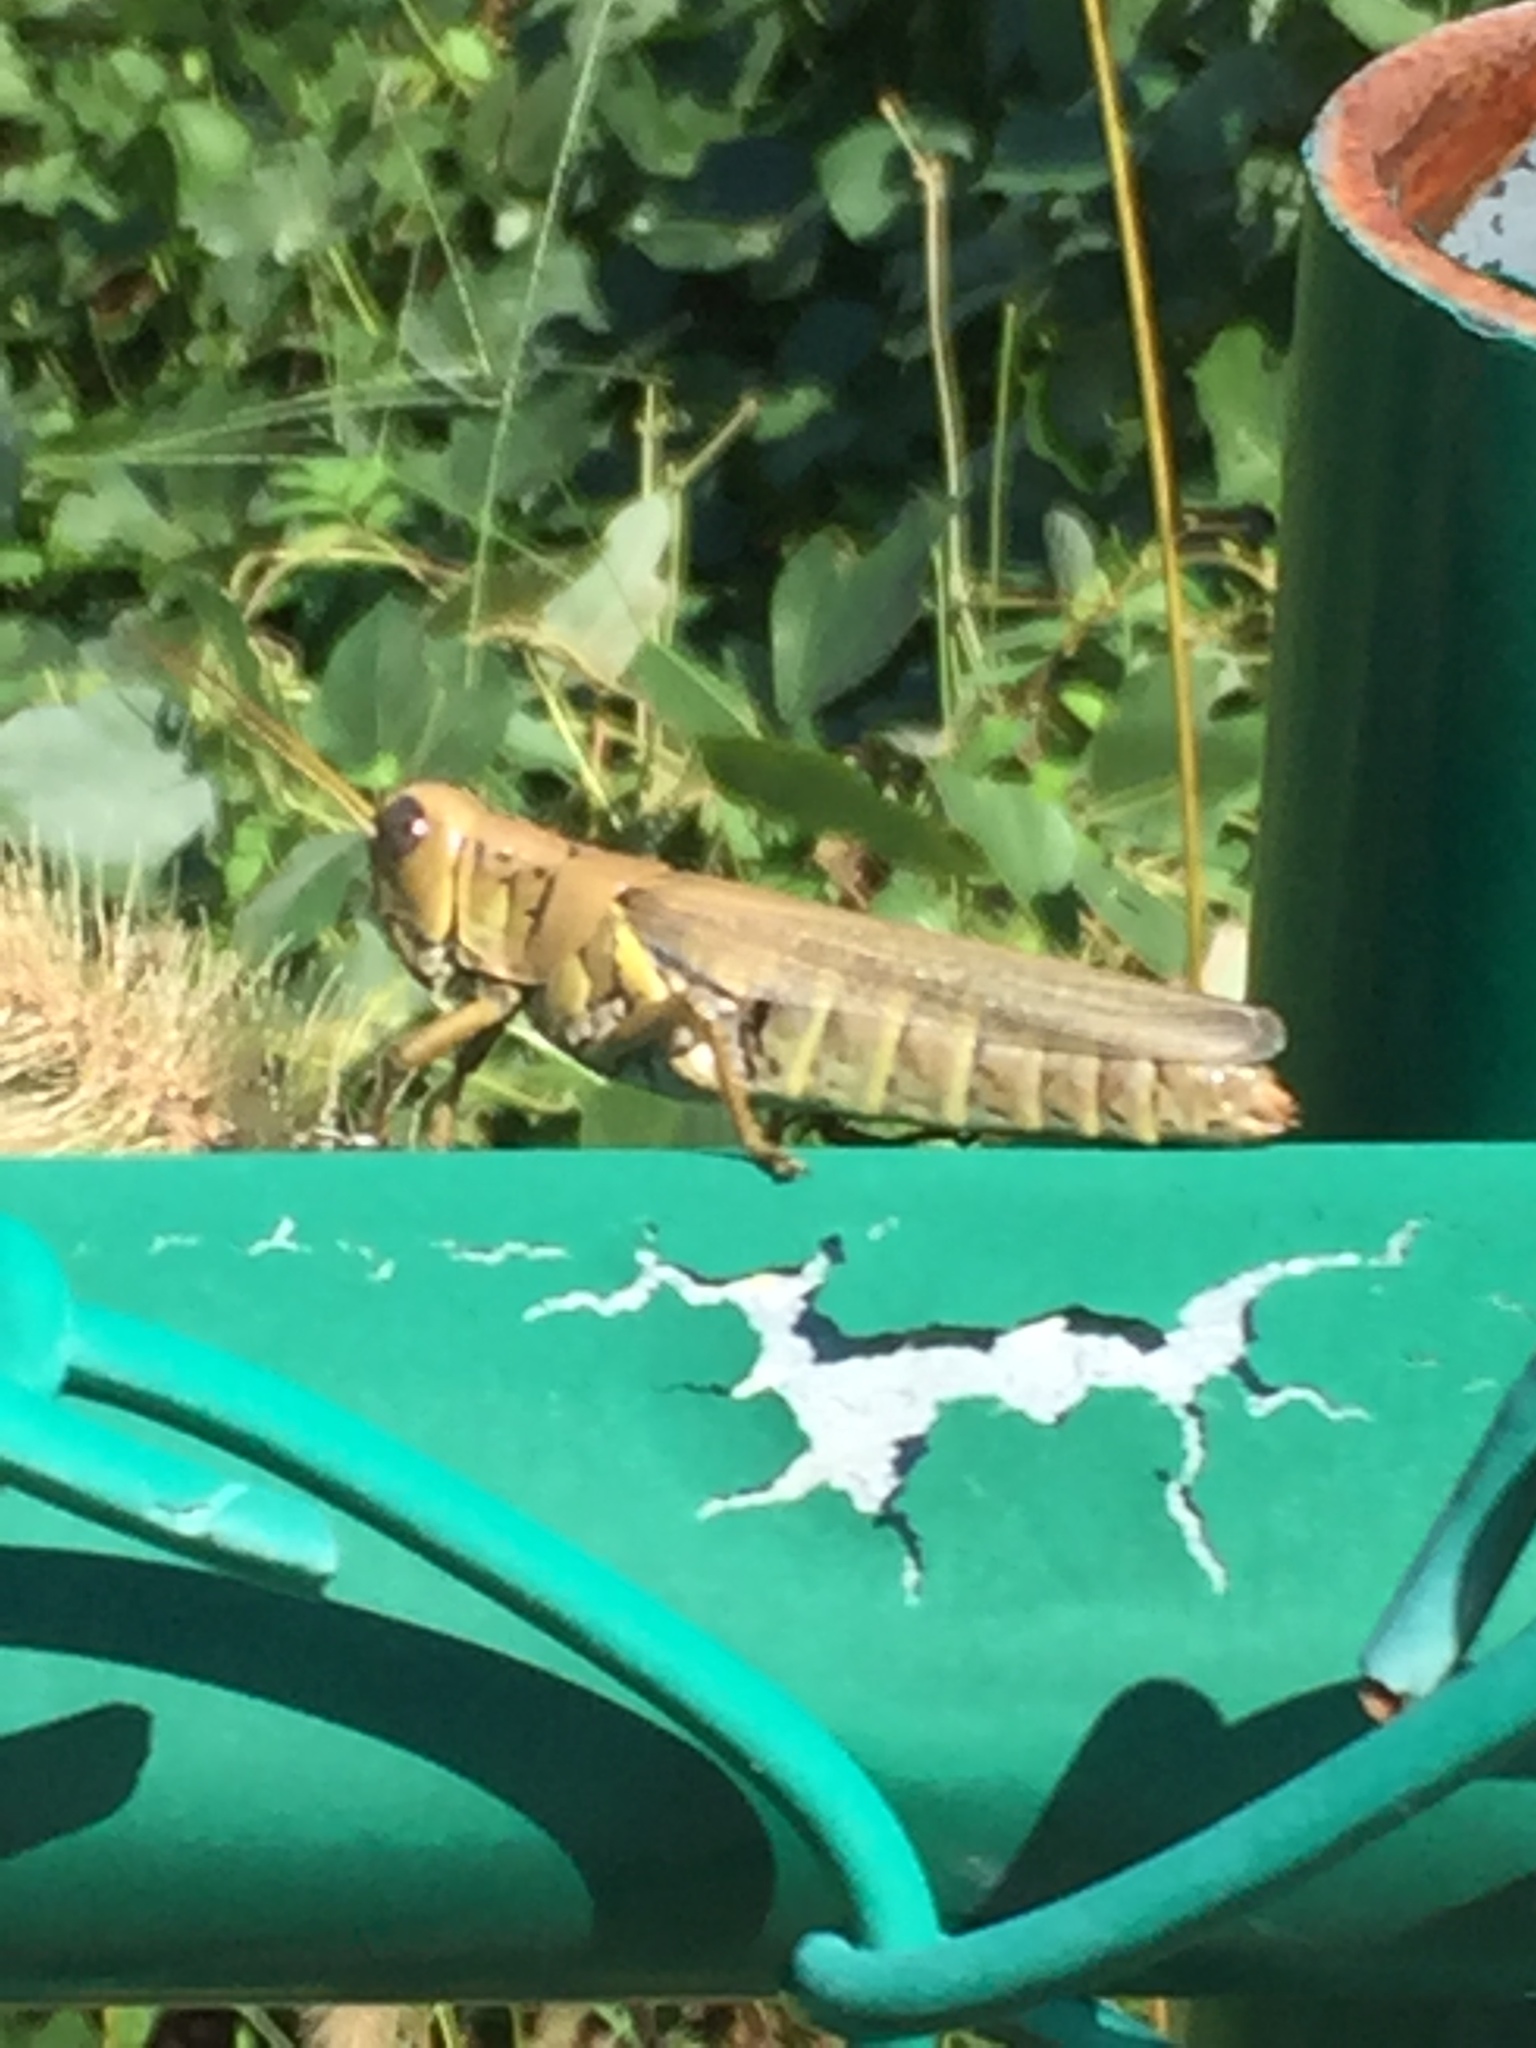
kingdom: Animalia
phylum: Arthropoda
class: Insecta
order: Orthoptera
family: Acrididae
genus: Melanoplus
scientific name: Melanoplus differentialis
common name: Differential grasshopper
